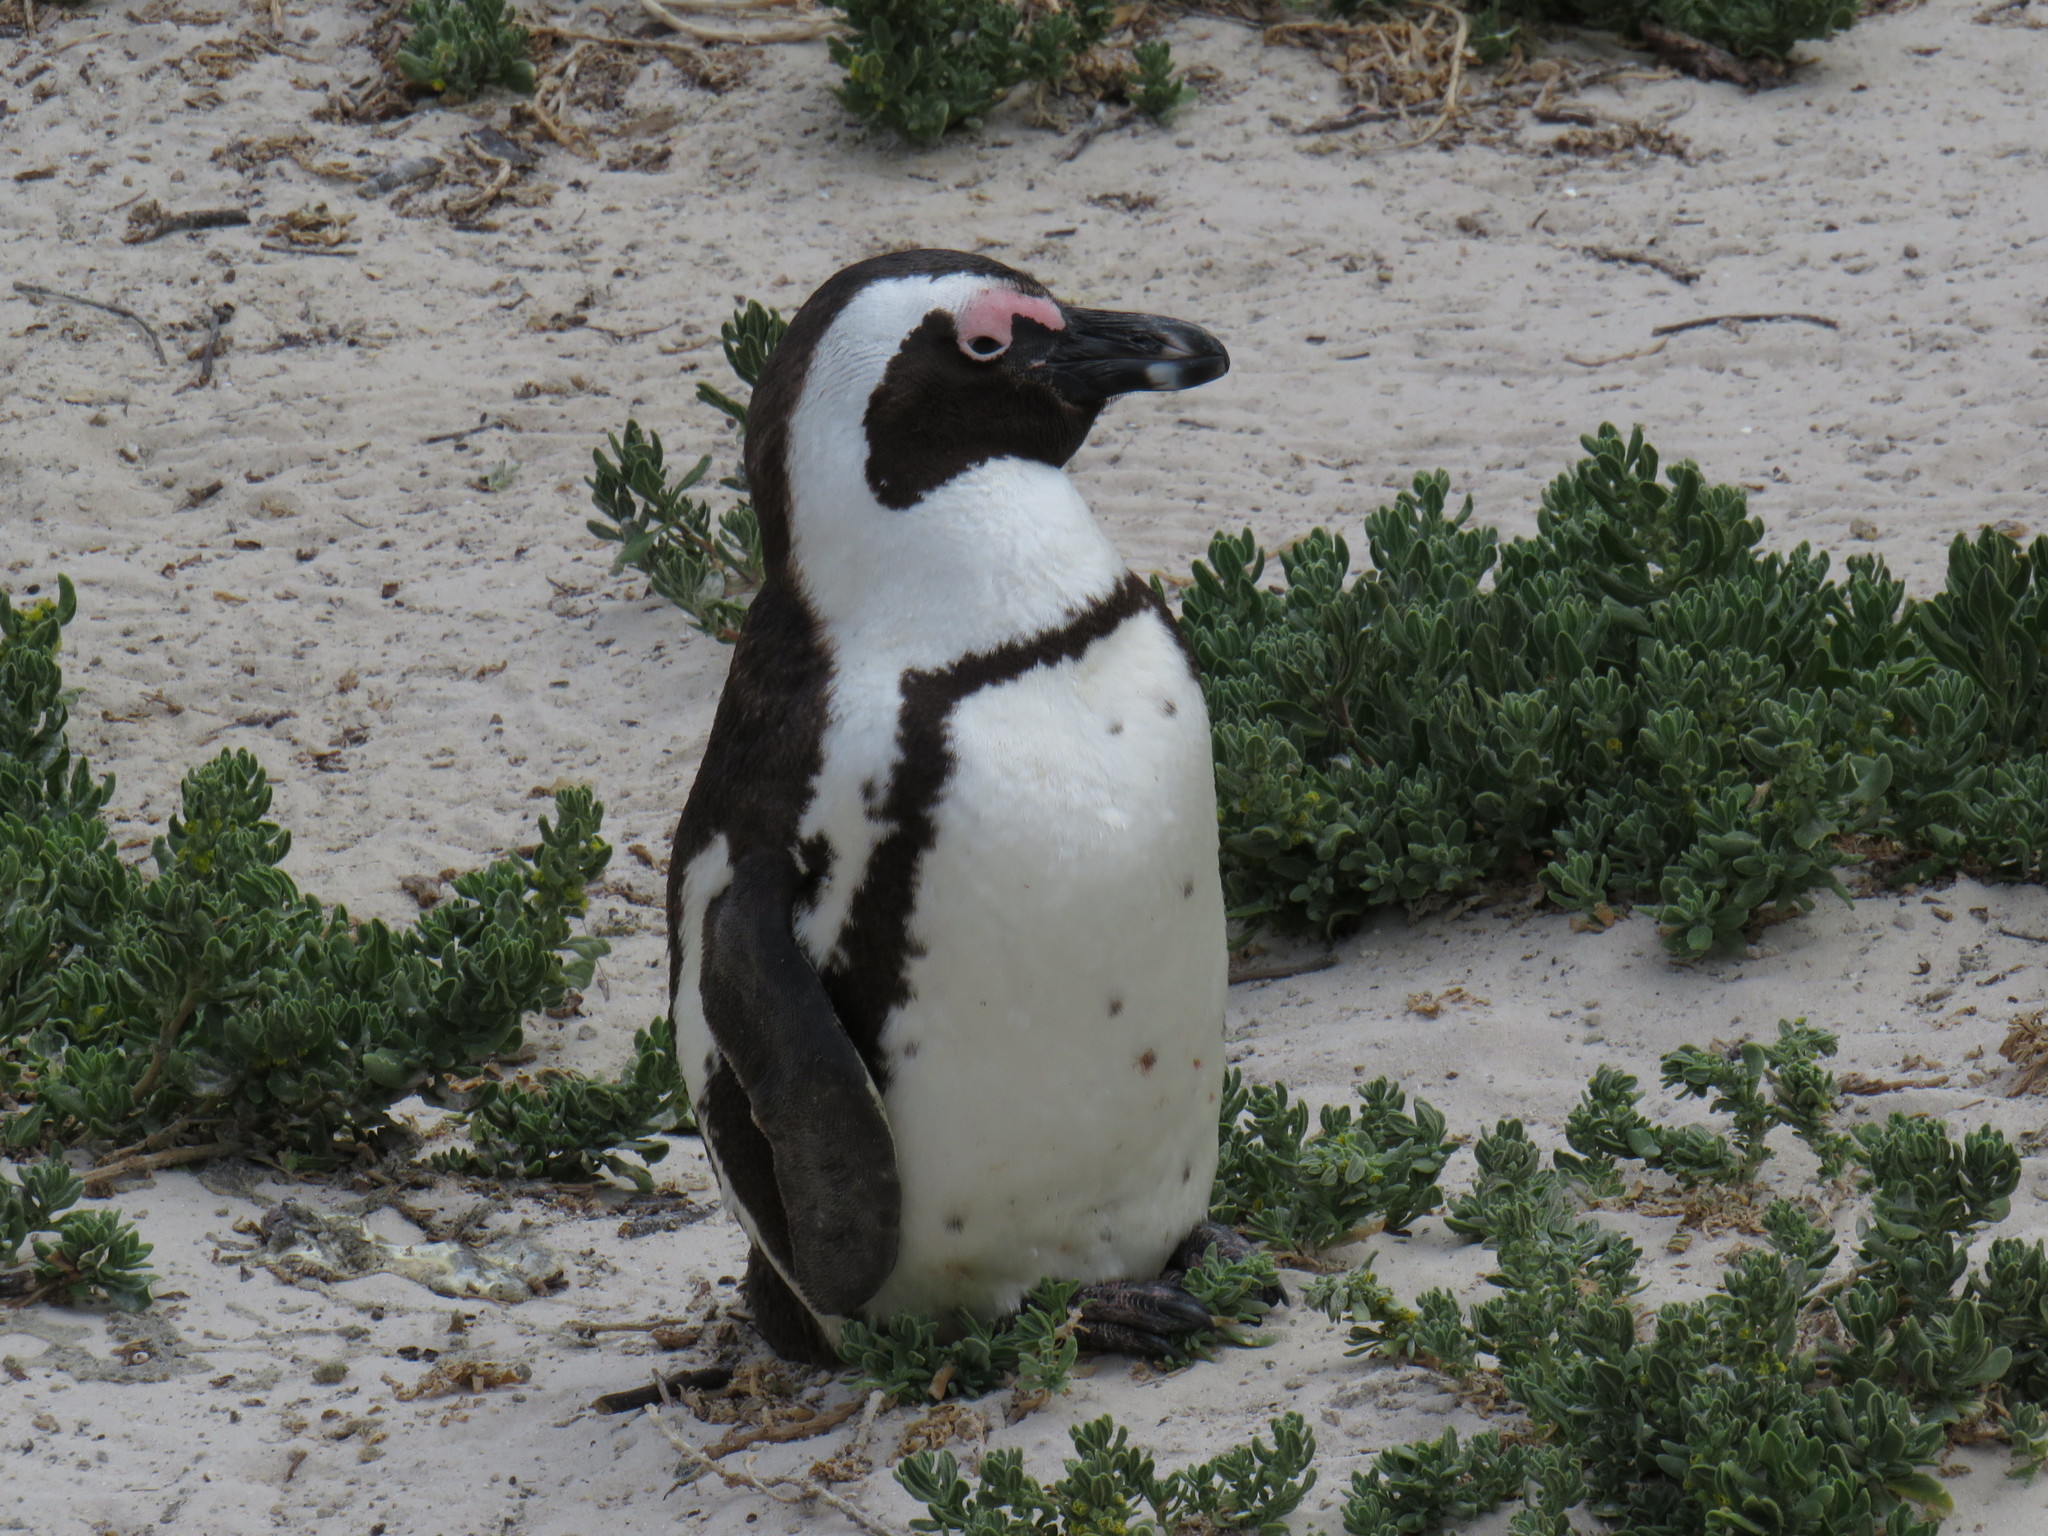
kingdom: Animalia
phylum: Chordata
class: Aves
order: Sphenisciformes
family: Spheniscidae
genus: Spheniscus
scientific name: Spheniscus demersus
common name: African penguin
